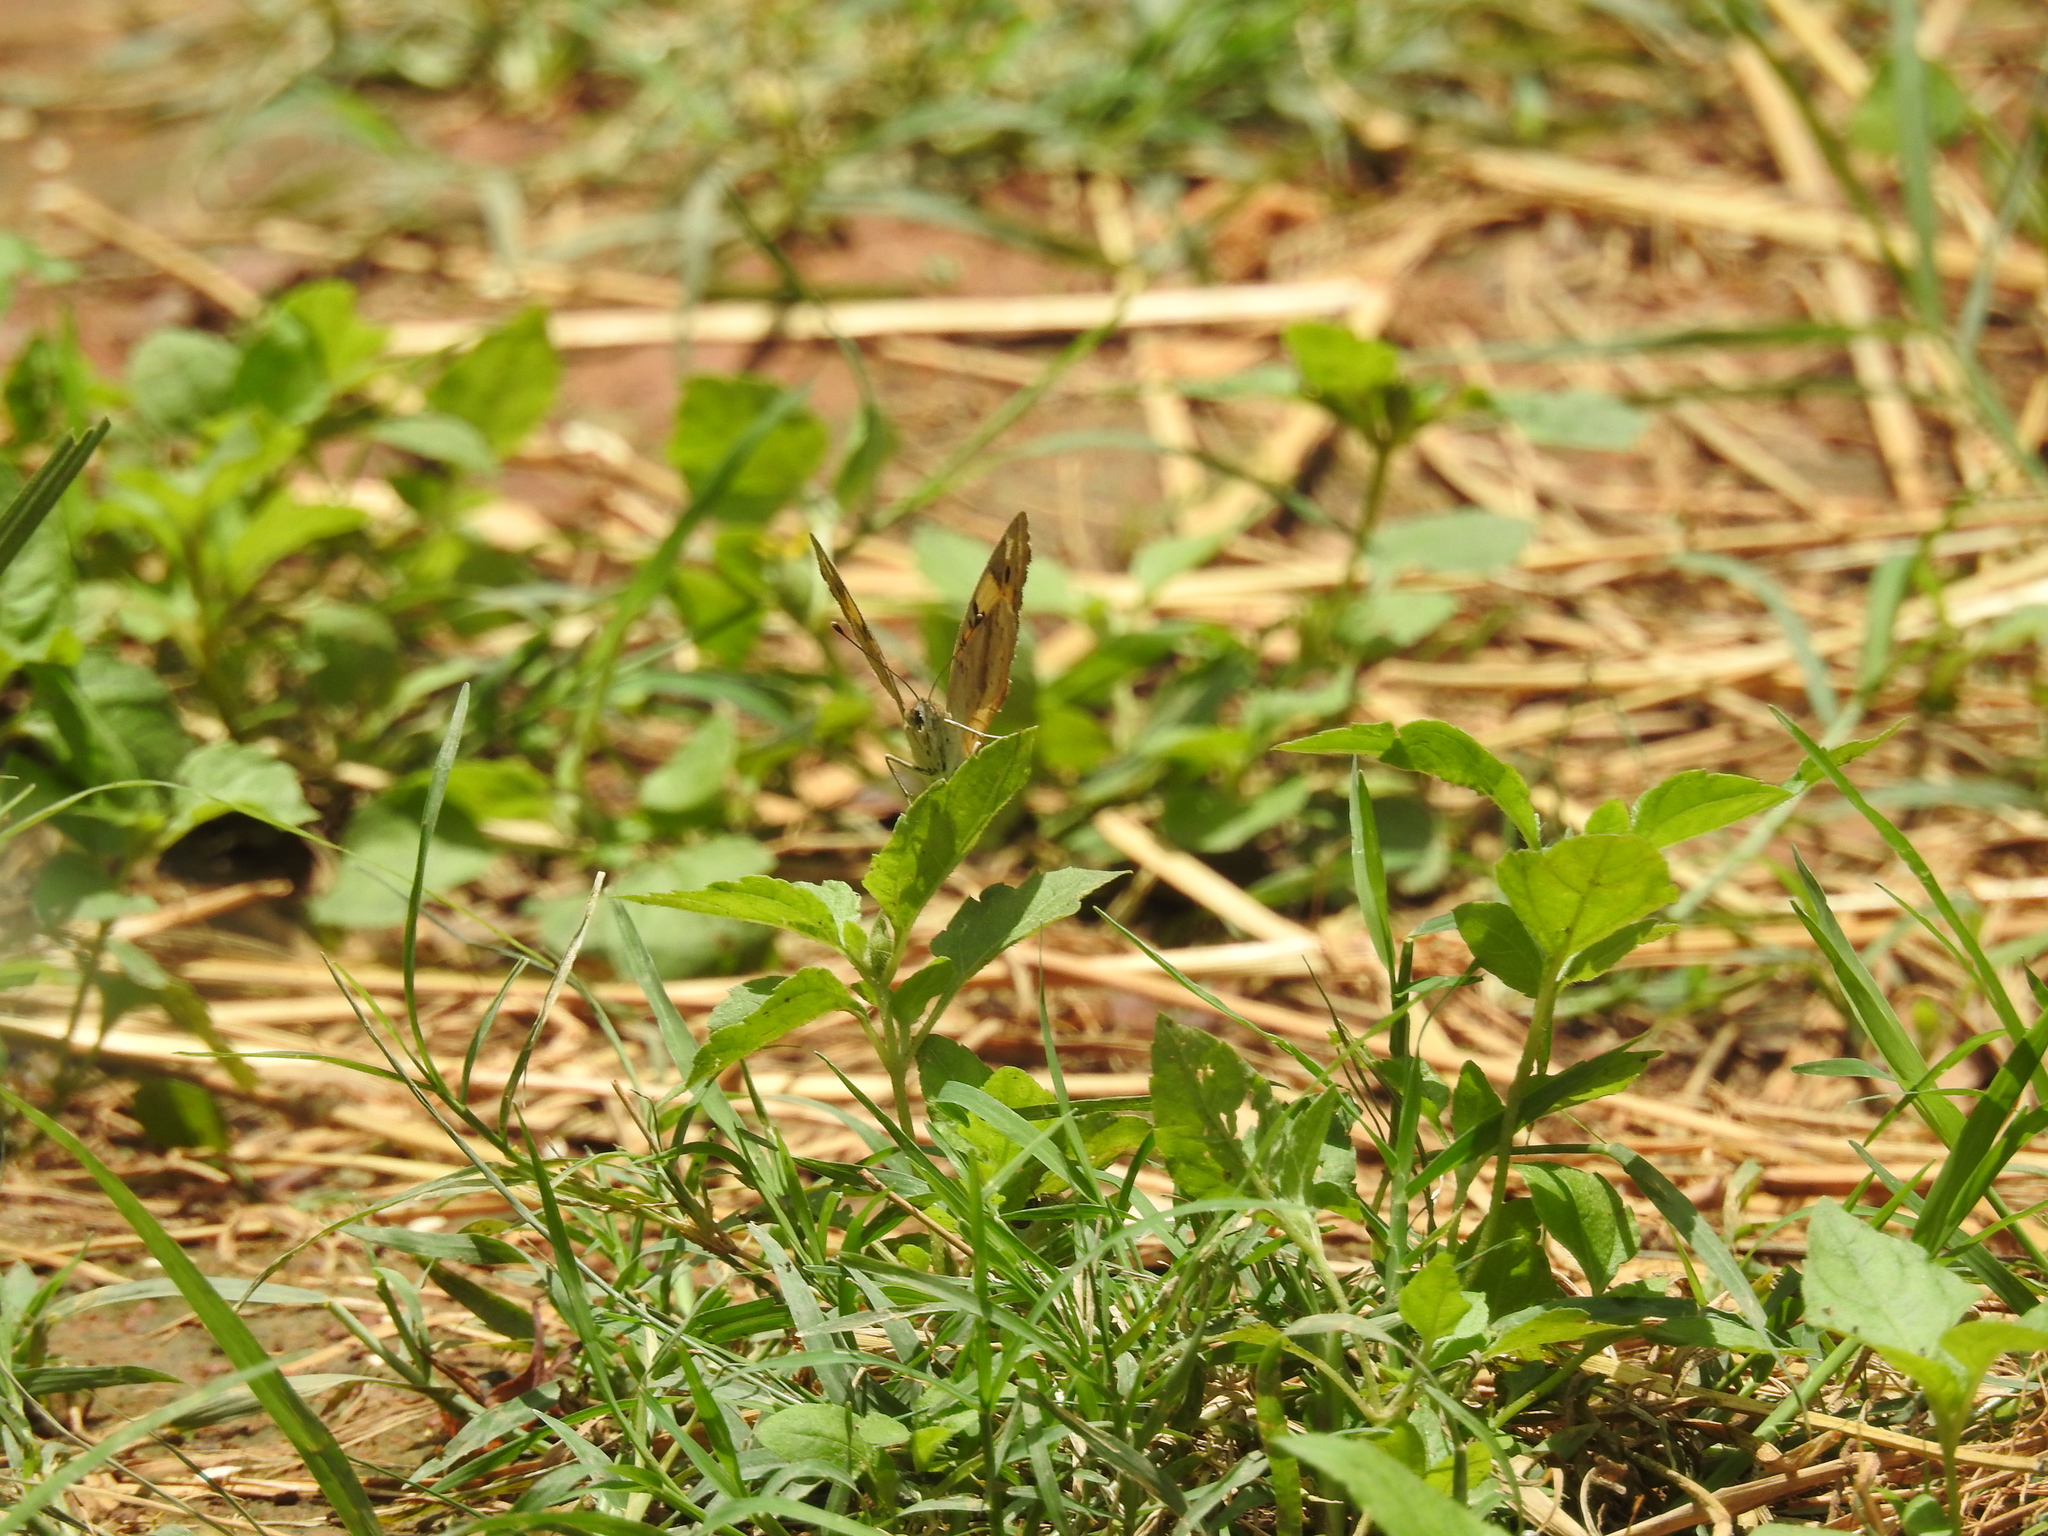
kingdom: Animalia
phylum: Arthropoda
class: Insecta
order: Lepidoptera
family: Nymphalidae
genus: Junonia
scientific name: Junonia hierta
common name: Yellow pansy
